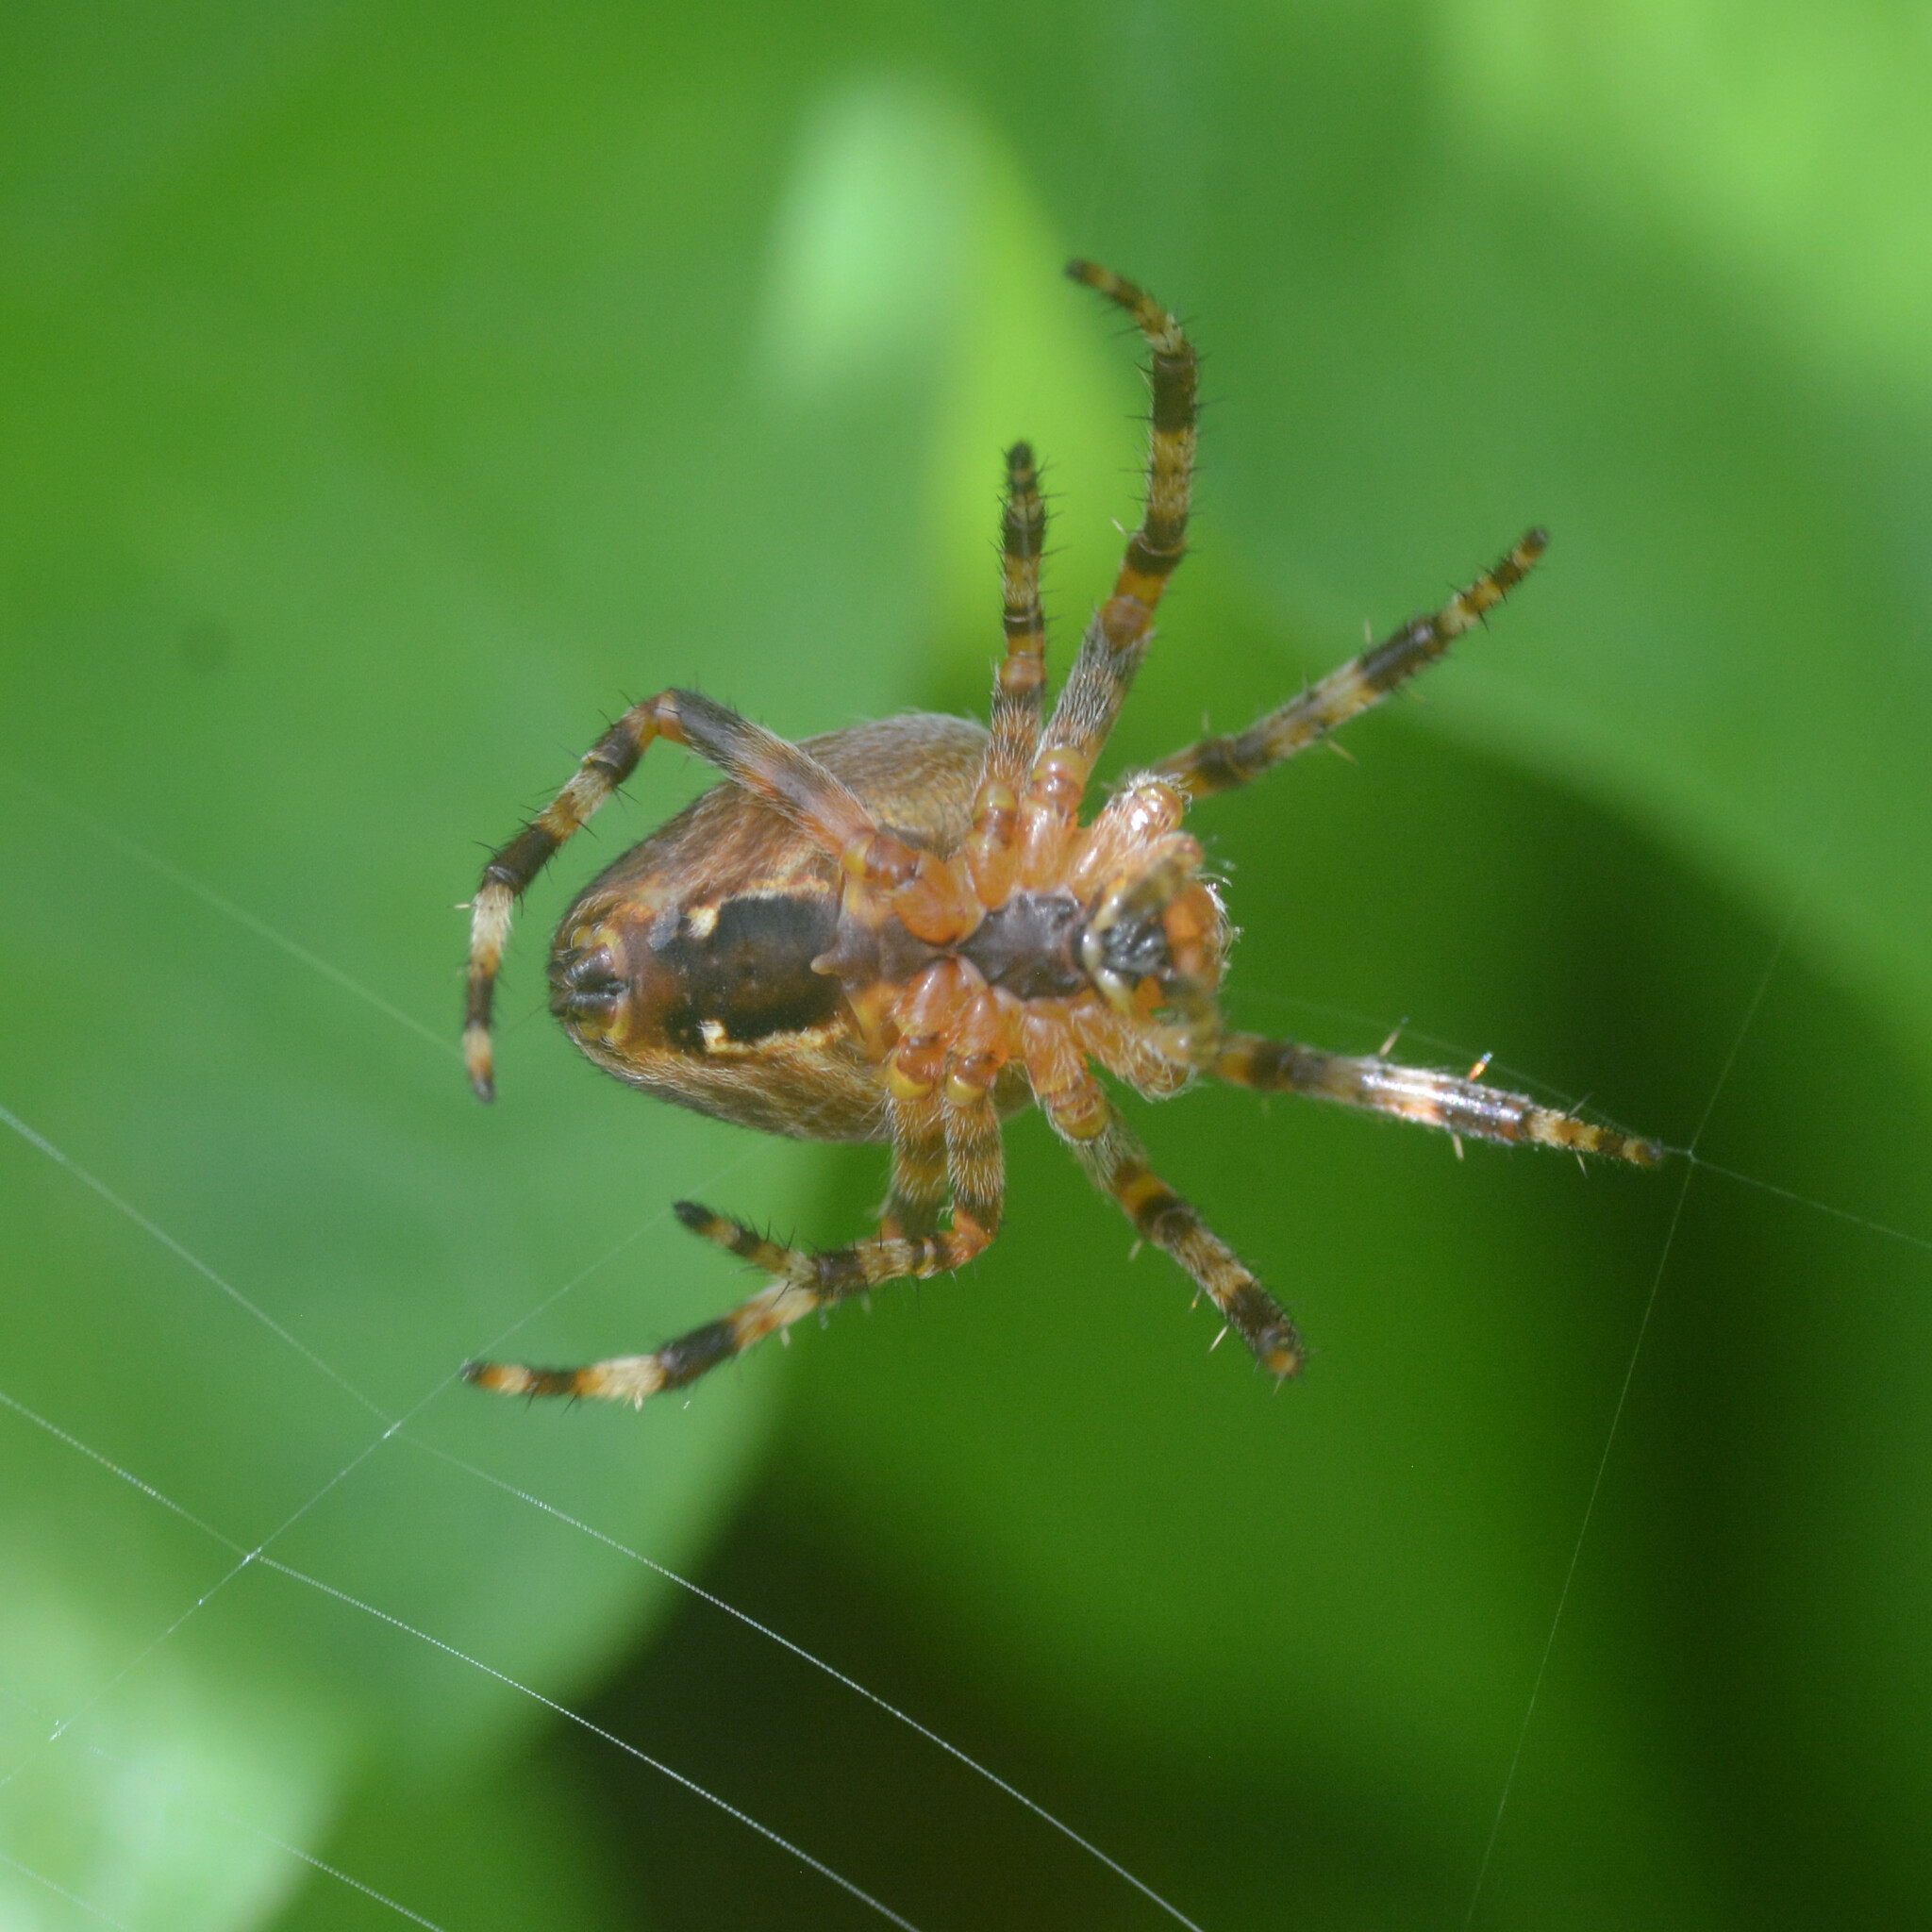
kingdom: Animalia
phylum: Arthropoda
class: Arachnida
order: Araneae
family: Araneidae
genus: Araneus
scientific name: Araneus diadematus
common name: Cross orbweaver
